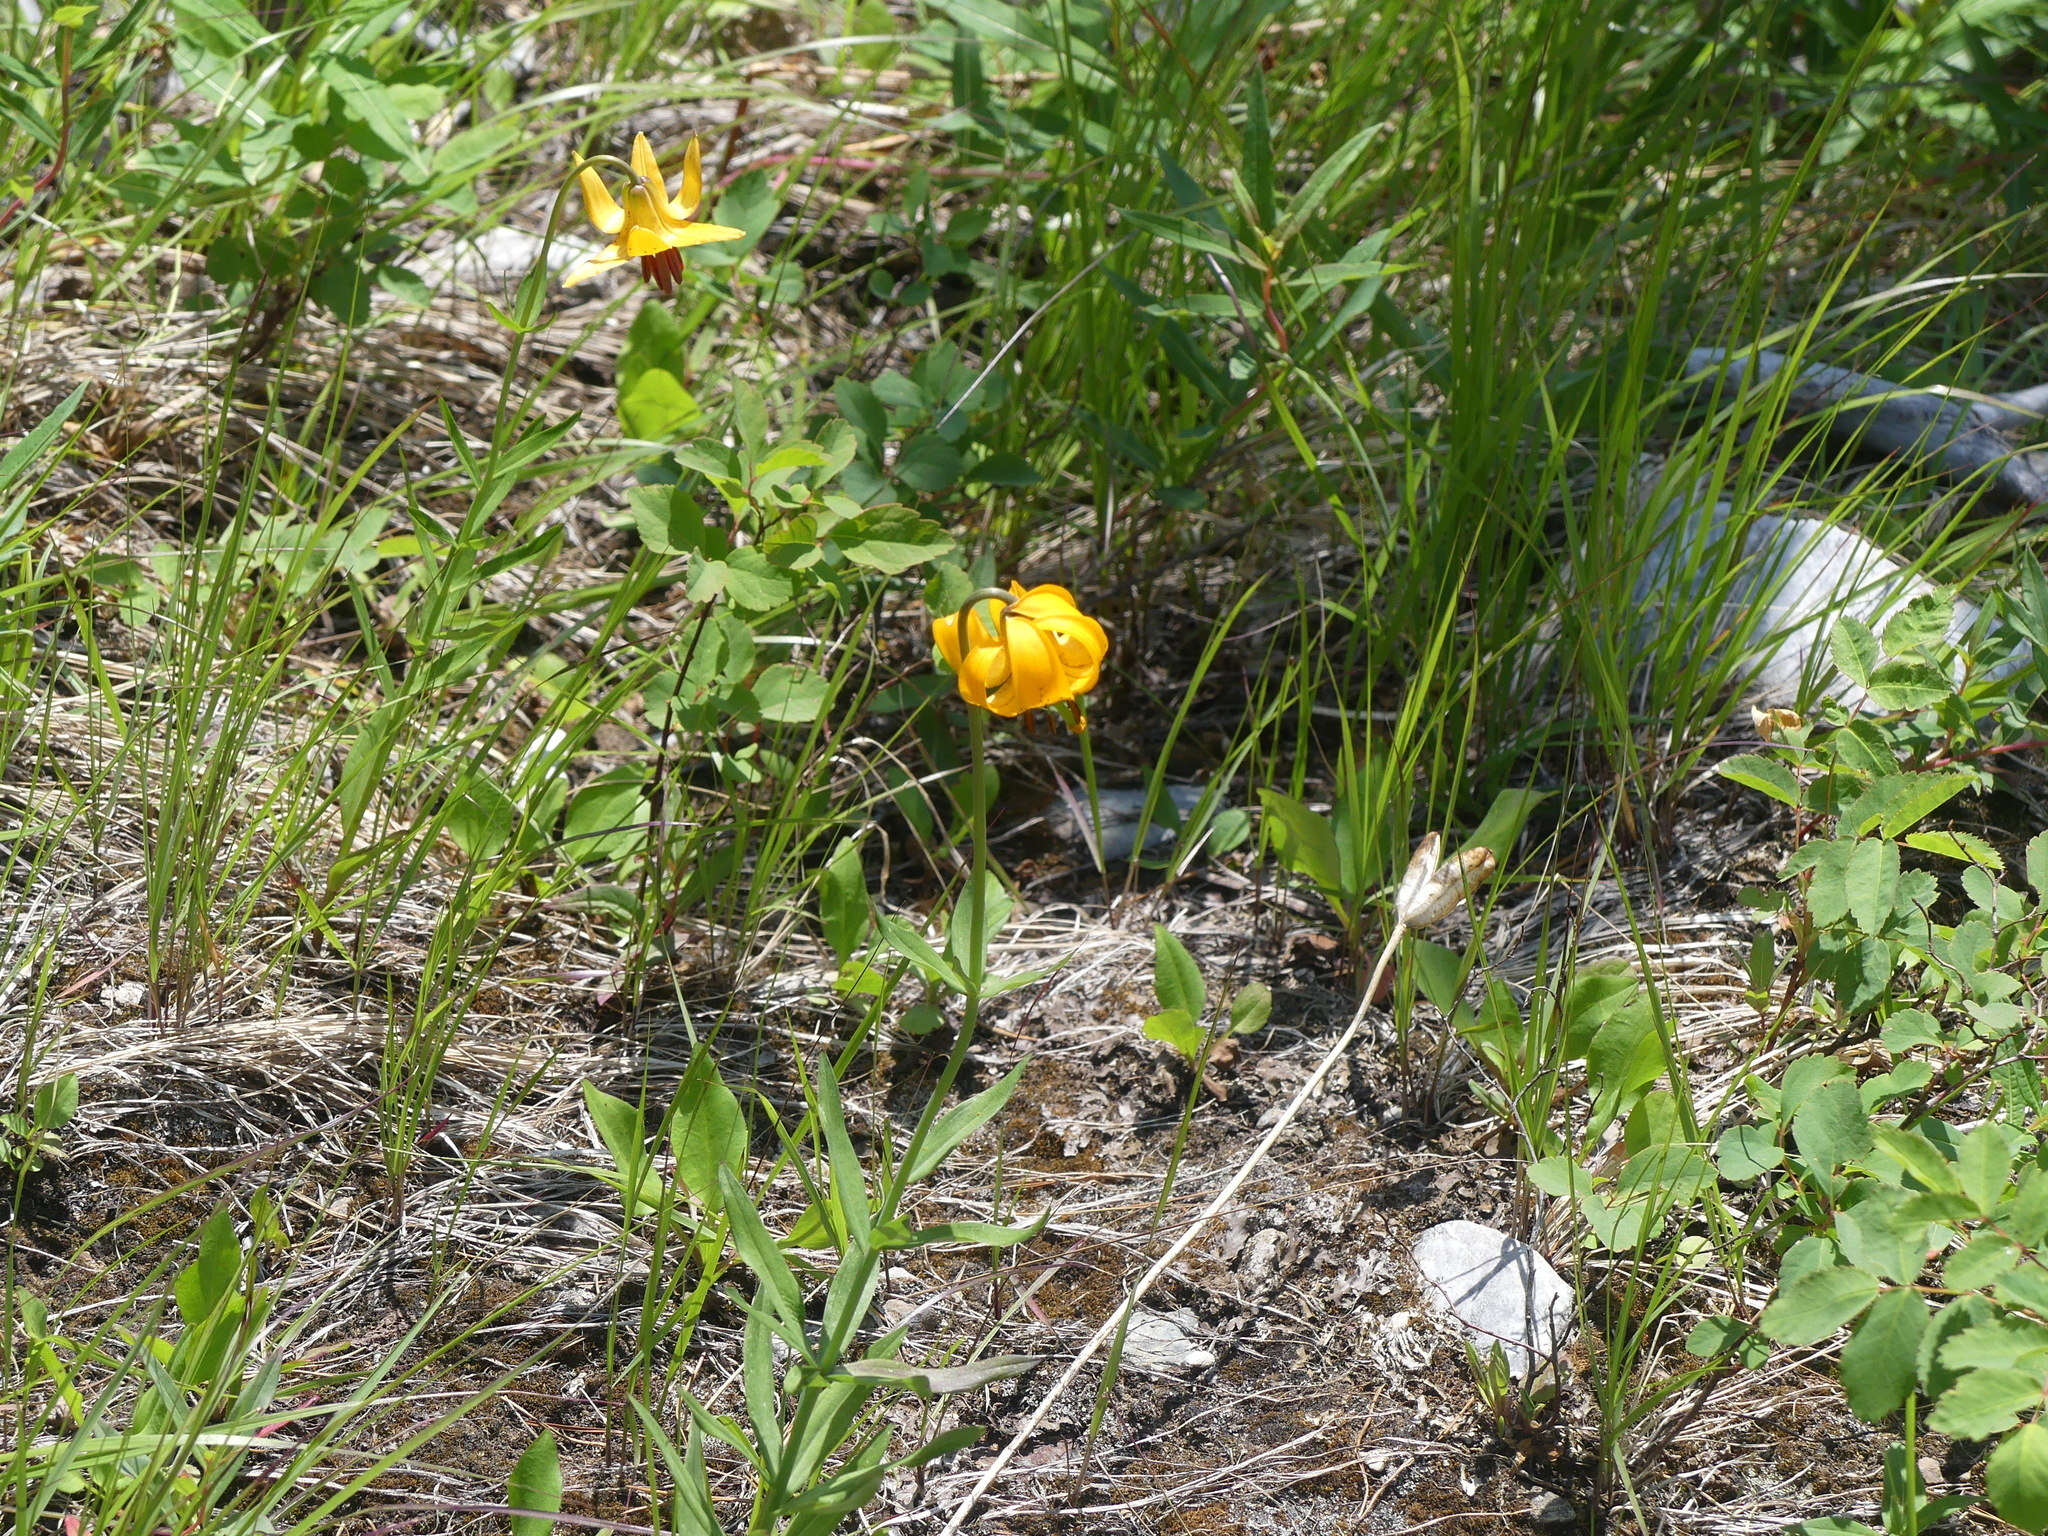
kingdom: Plantae
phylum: Tracheophyta
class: Liliopsida
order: Liliales
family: Liliaceae
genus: Lilium
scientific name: Lilium columbianum
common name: Columbia lily
